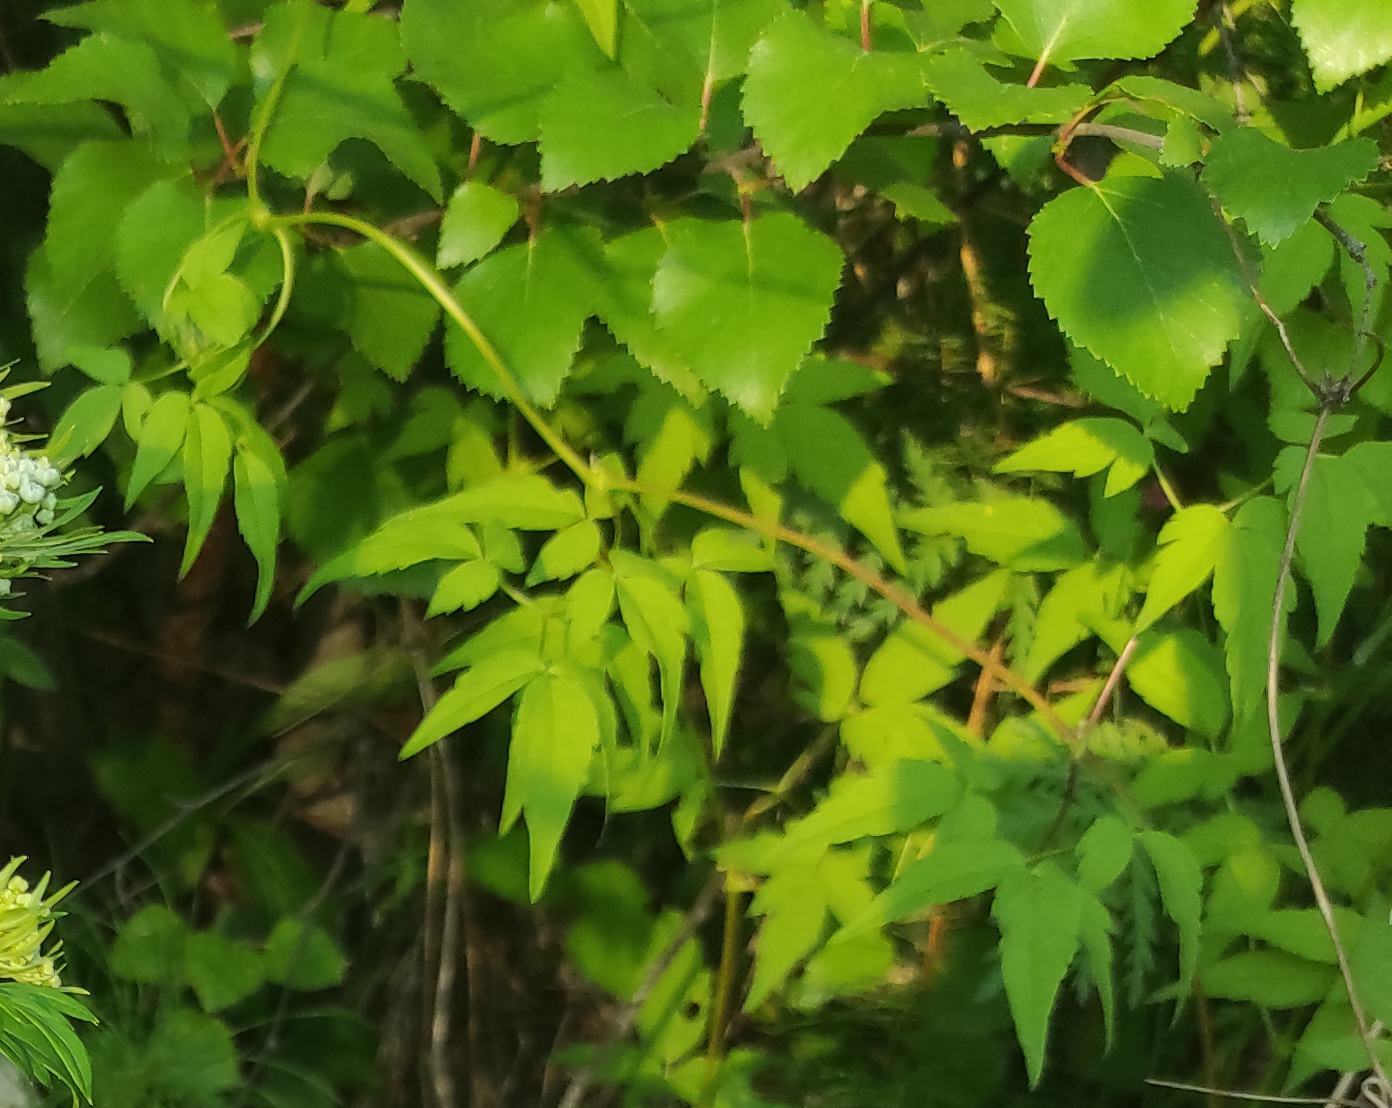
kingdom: Plantae
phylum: Tracheophyta
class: Magnoliopsida
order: Ranunculales
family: Ranunculaceae
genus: Clematis
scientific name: Clematis sibirica
